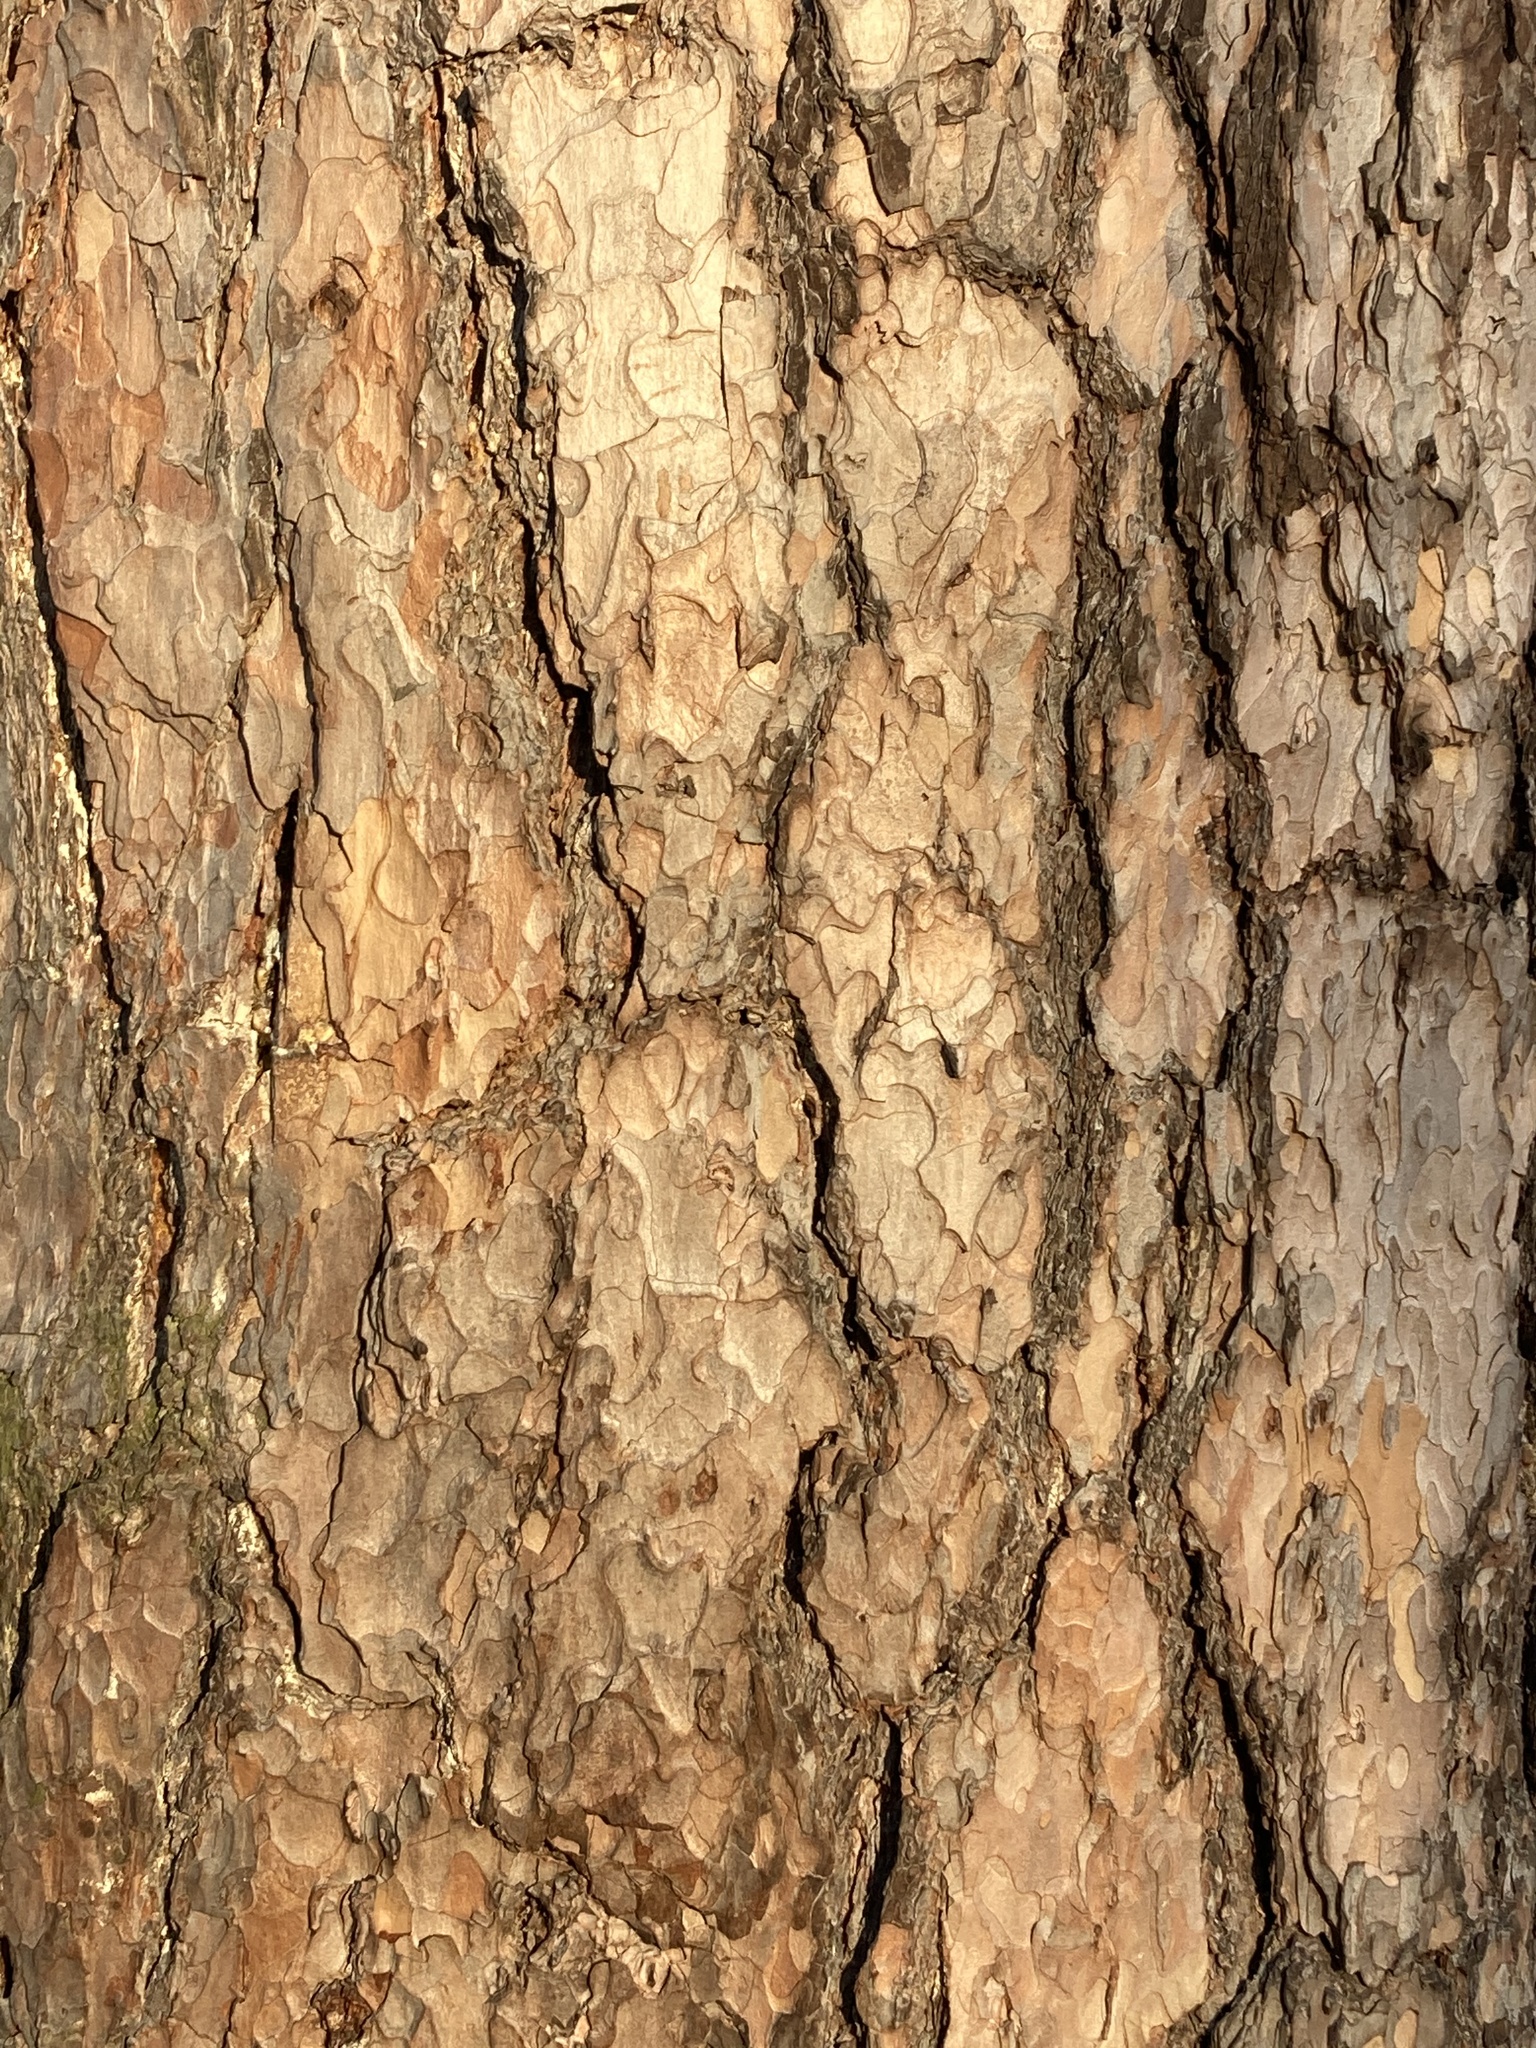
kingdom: Plantae
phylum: Tracheophyta
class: Pinopsida
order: Pinales
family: Pinaceae
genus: Pinus
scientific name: Pinus sylvestris
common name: Scots pine
